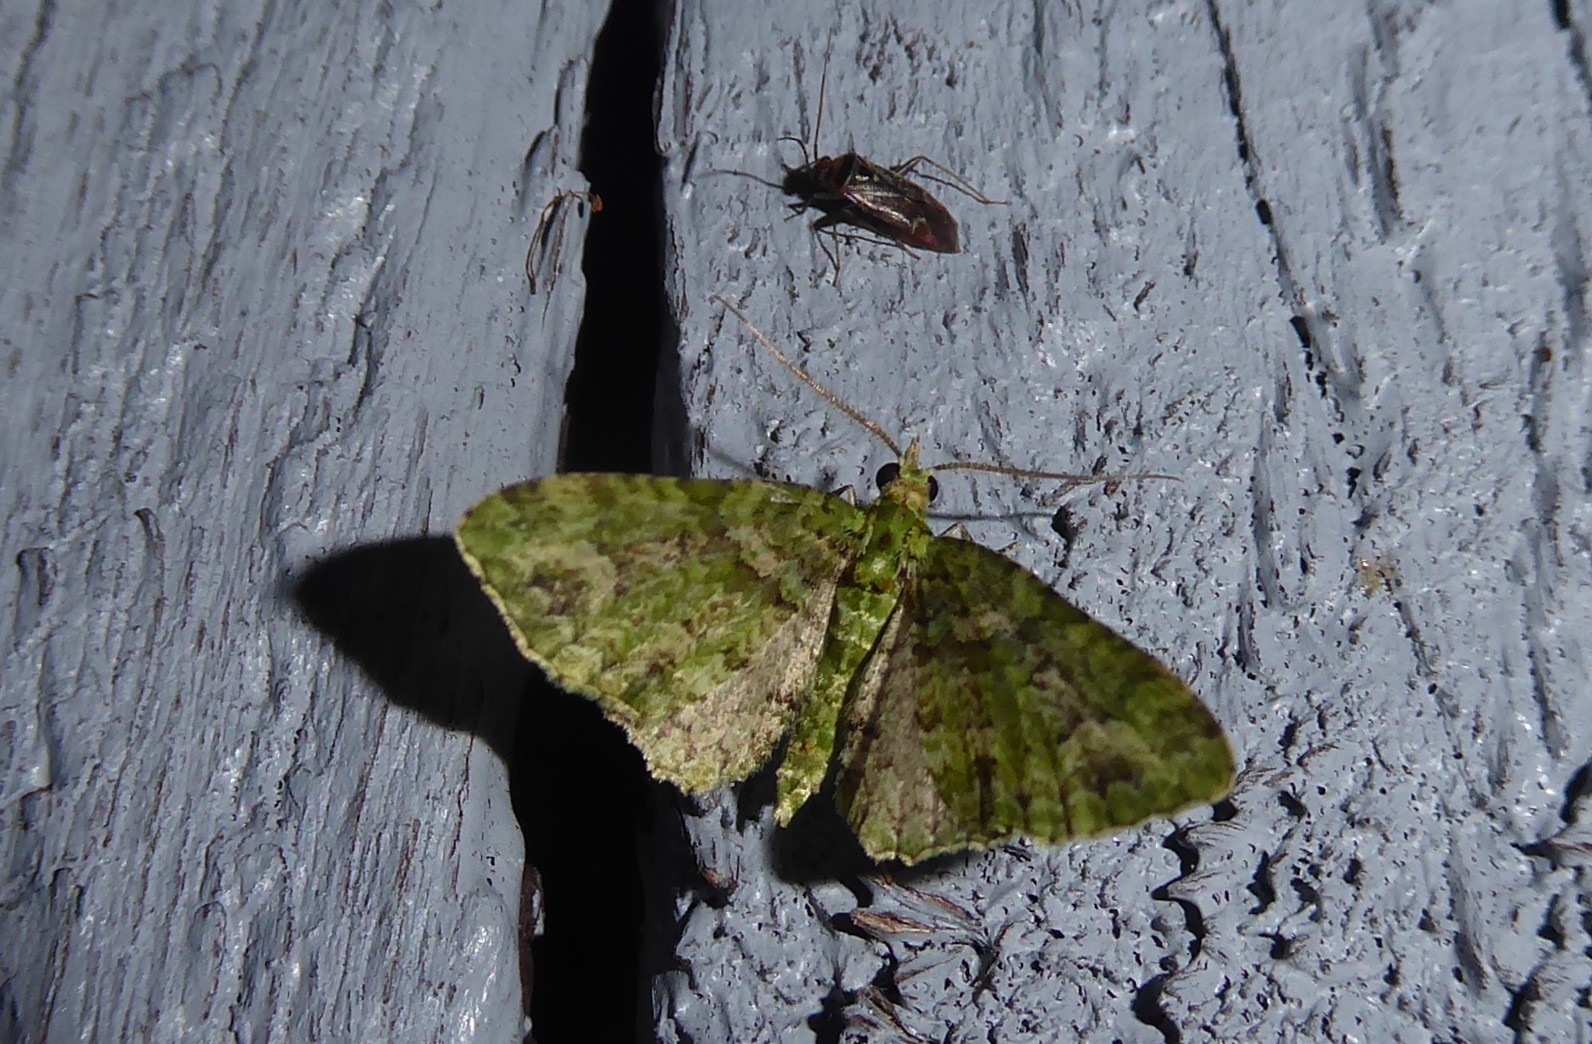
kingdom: Animalia
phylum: Arthropoda
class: Insecta
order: Lepidoptera
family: Geometridae
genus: Pasiphila
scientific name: Pasiphila muscosata
